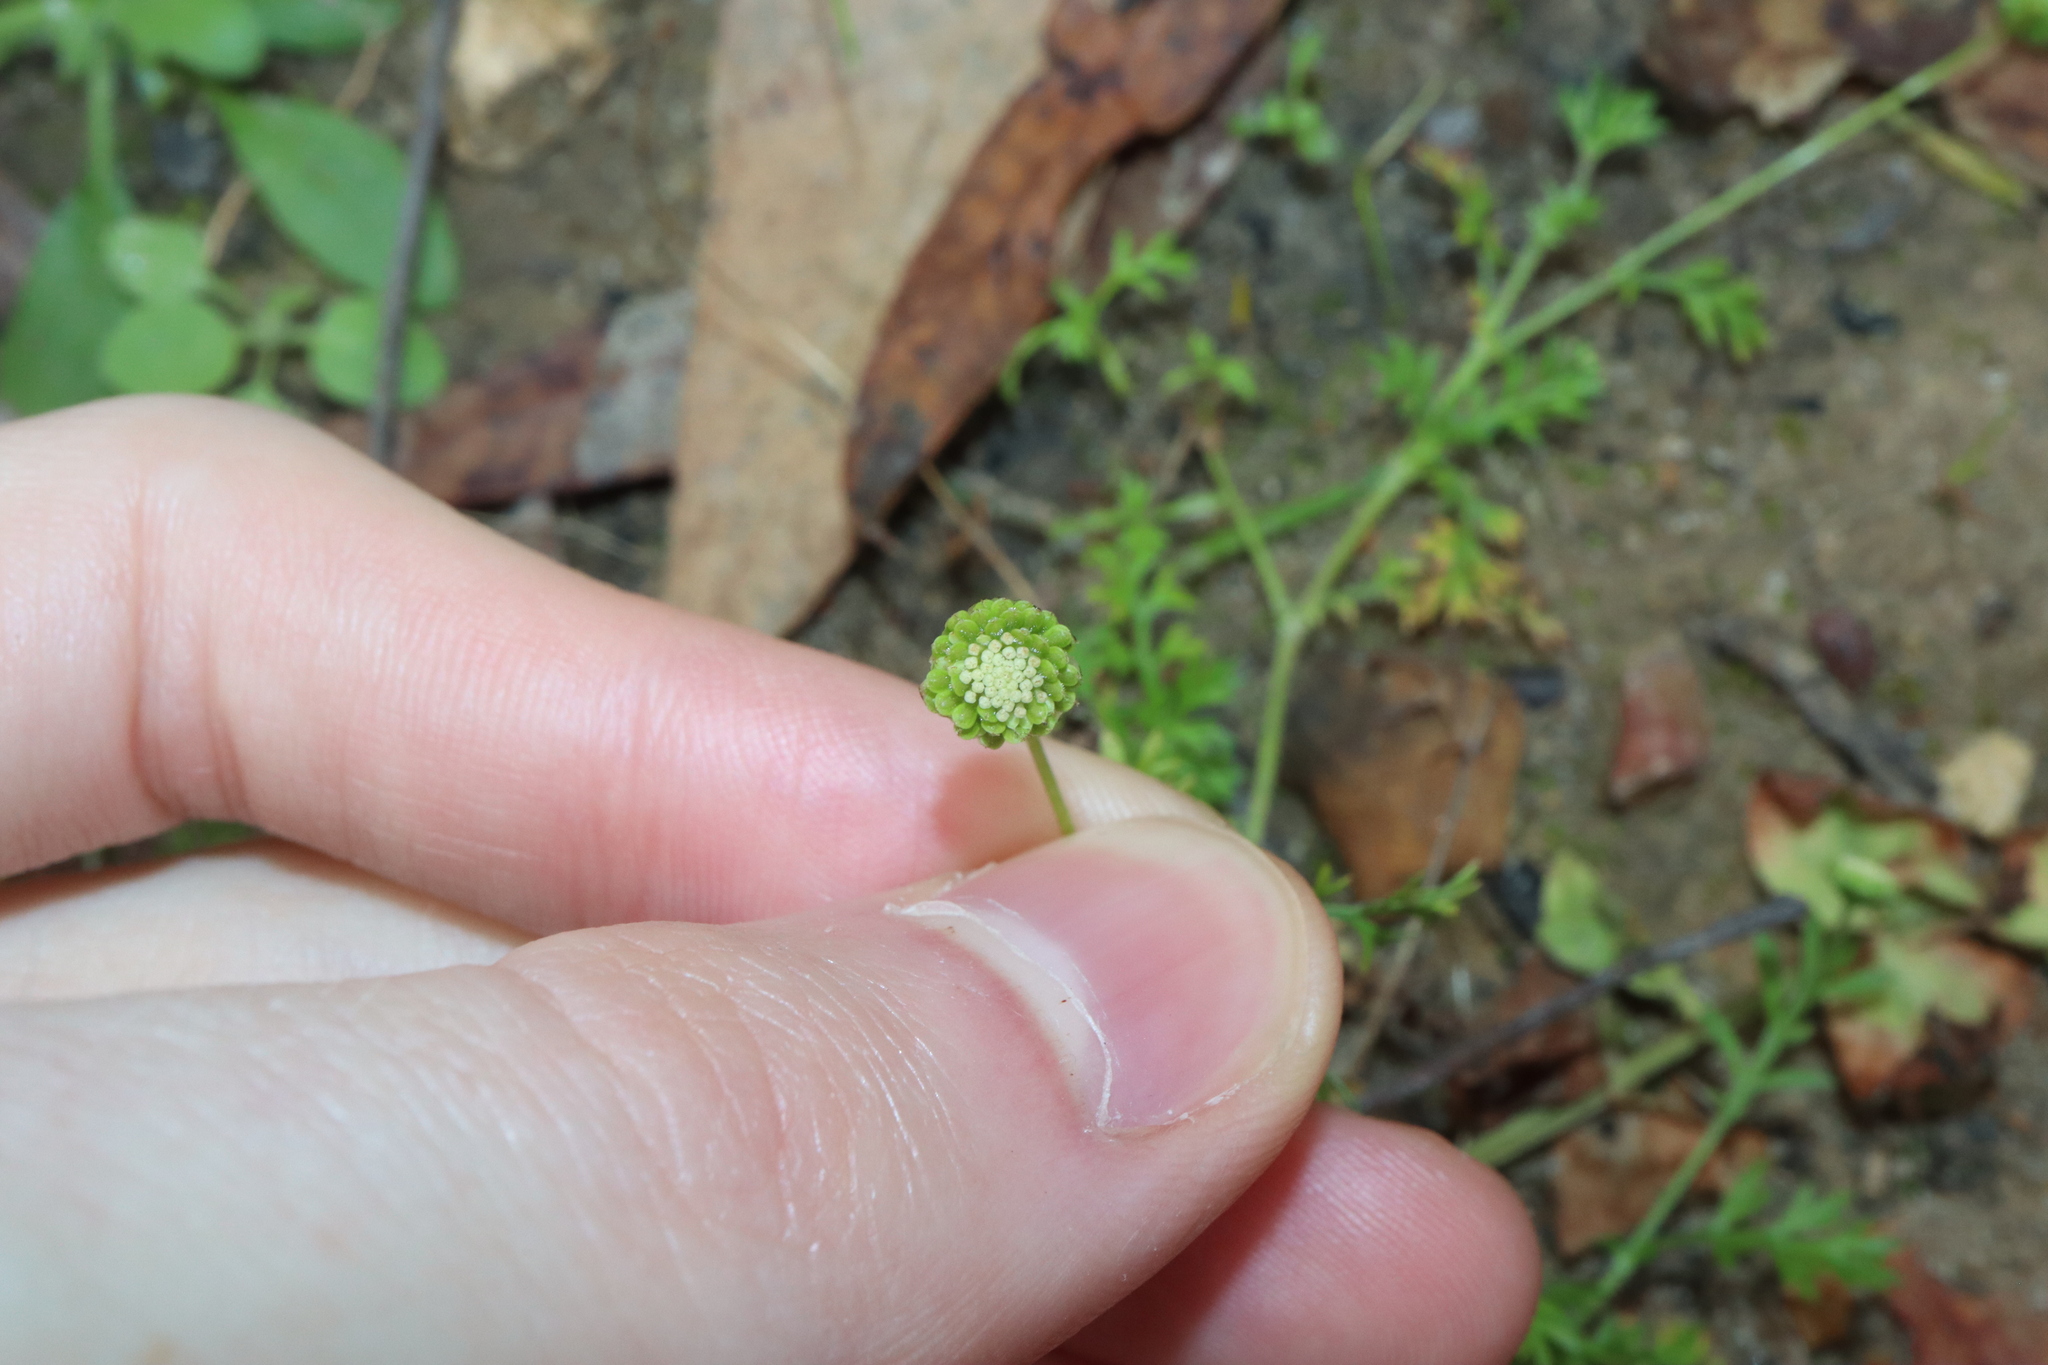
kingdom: Plantae
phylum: Tracheophyta
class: Magnoliopsida
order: Asterales
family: Asteraceae
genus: Cotula
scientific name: Cotula australis
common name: Australian waterbuttons
